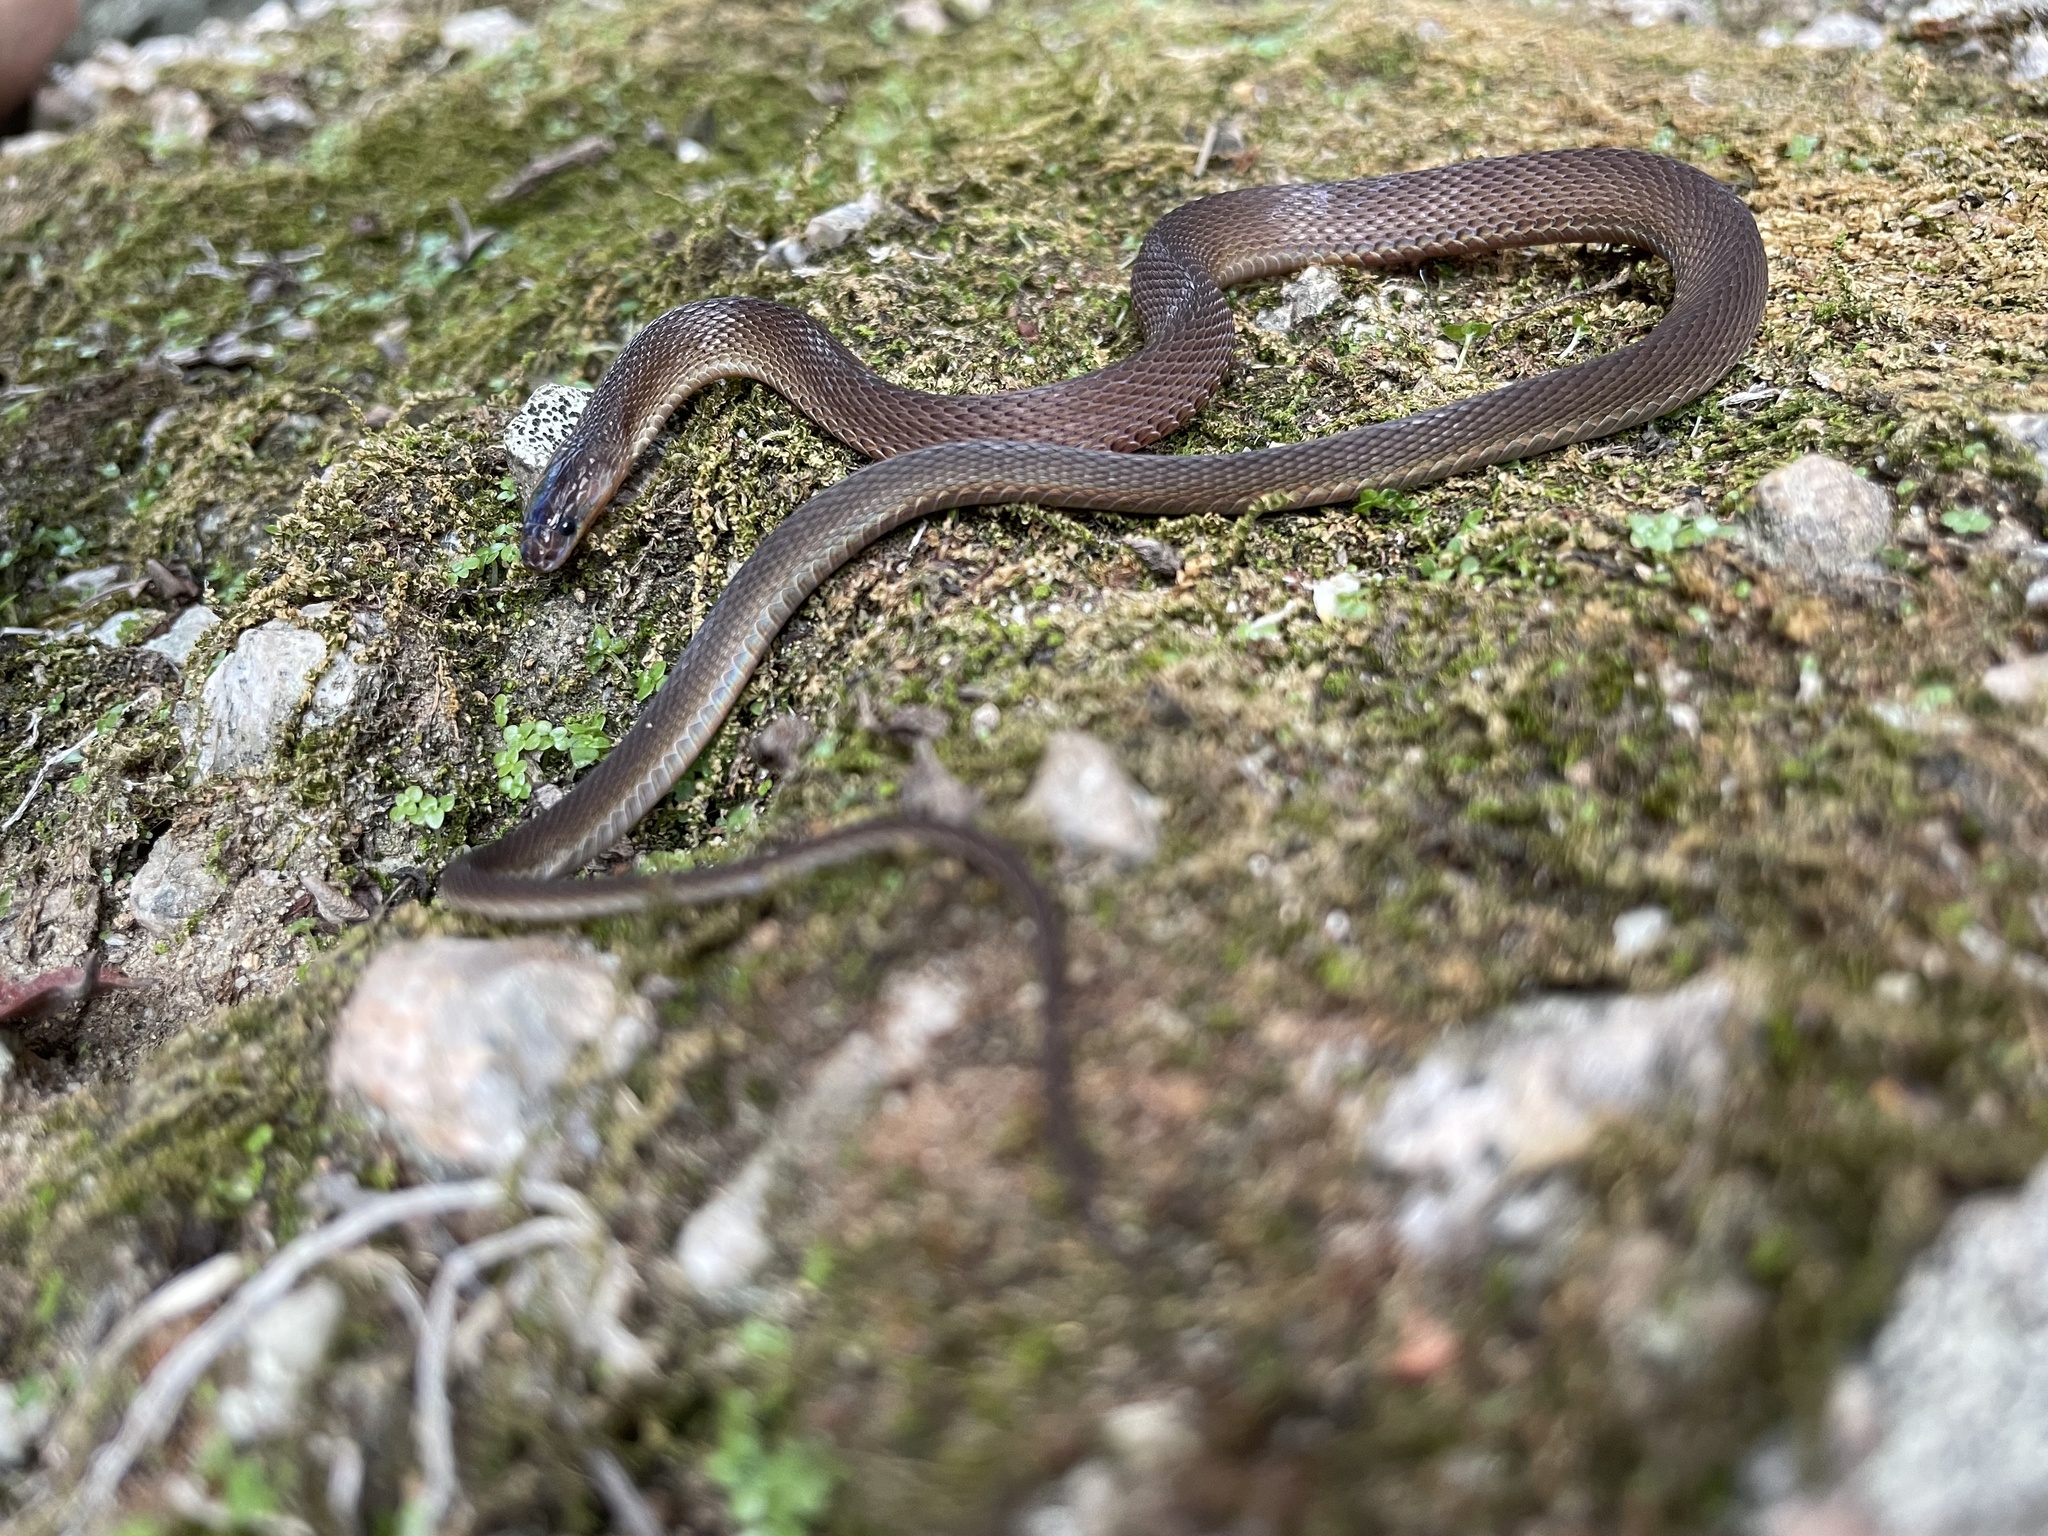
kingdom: Animalia
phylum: Chordata
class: Squamata
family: Xenodermidae
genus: Achalinus
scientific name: Achalinus rufescens
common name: Rufous burrowing snake
